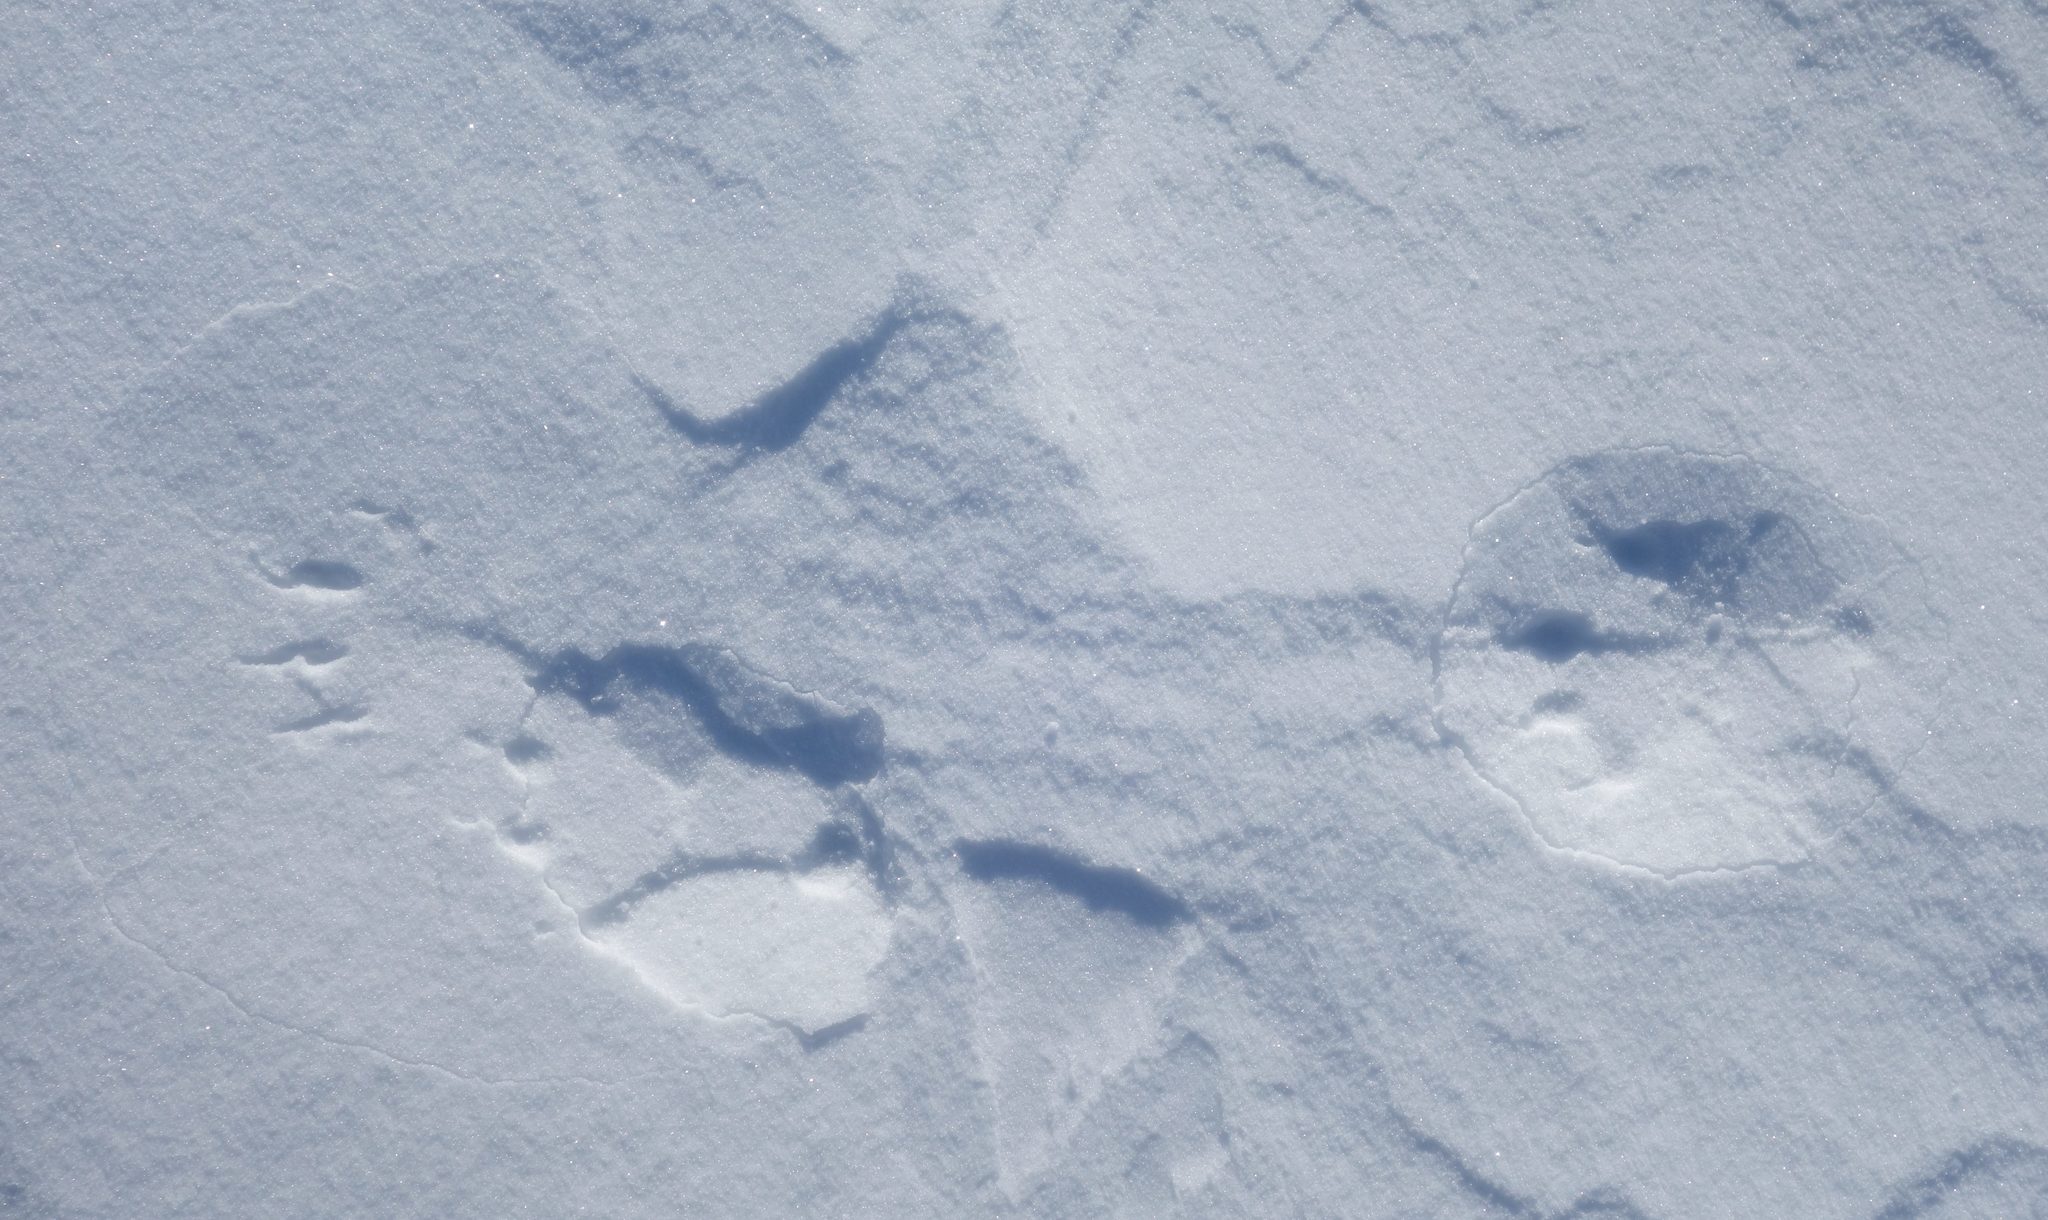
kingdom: Animalia
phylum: Chordata
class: Mammalia
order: Carnivora
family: Mustelidae
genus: Gulo
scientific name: Gulo gulo
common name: Wolverine
